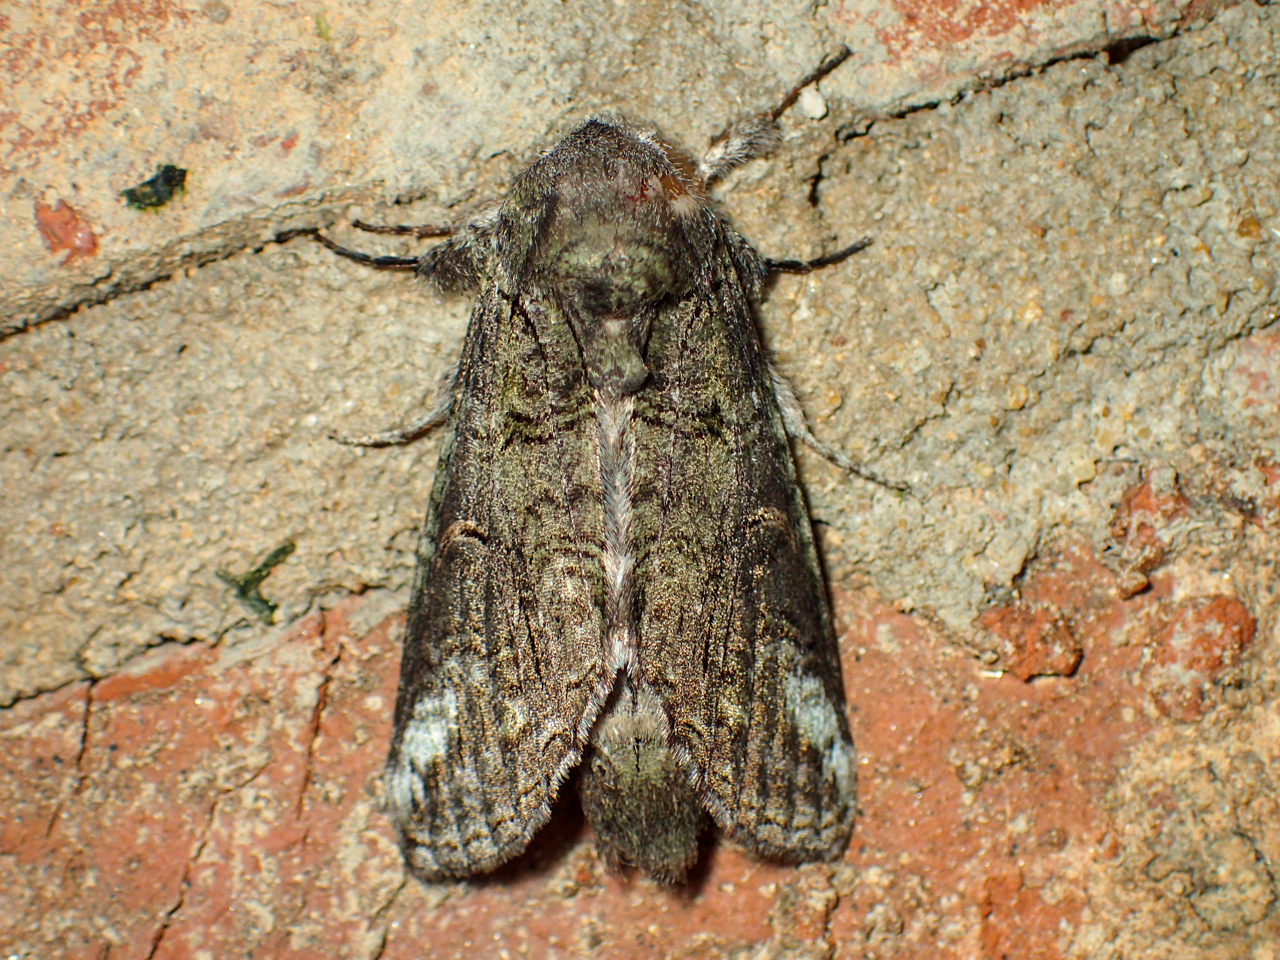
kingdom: Animalia
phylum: Arthropoda
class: Insecta
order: Lepidoptera
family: Notodontidae
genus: Heterocampa
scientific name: Heterocampa obliqua
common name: Oblique heterocampa
